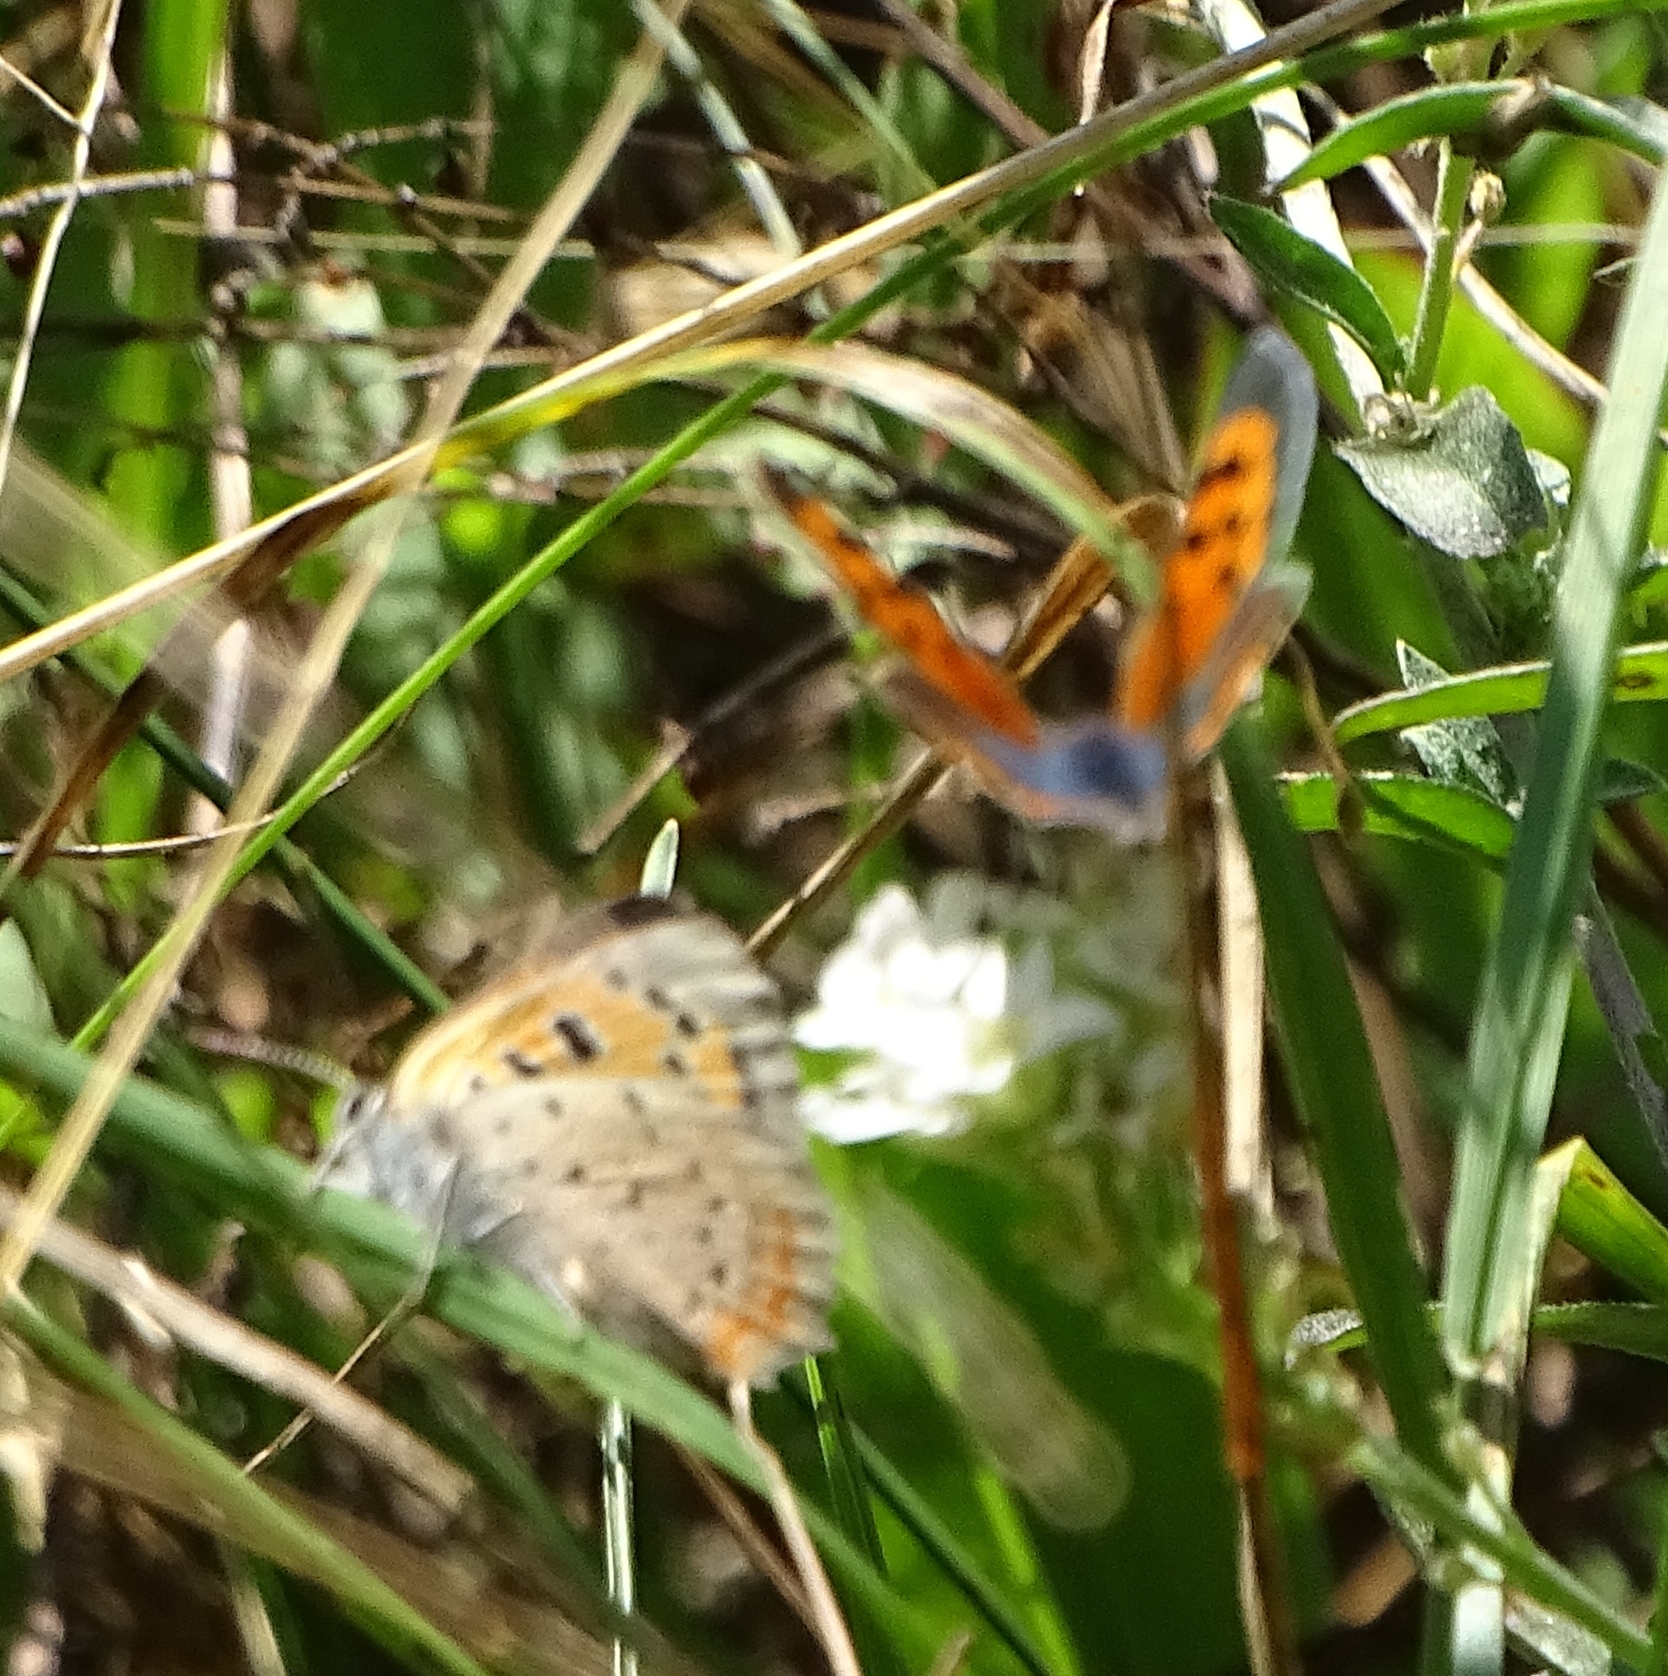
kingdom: Animalia
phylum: Arthropoda
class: Insecta
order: Lepidoptera
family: Lycaenidae
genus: Lycaena
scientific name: Lycaena hypophlaeas
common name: American copper
